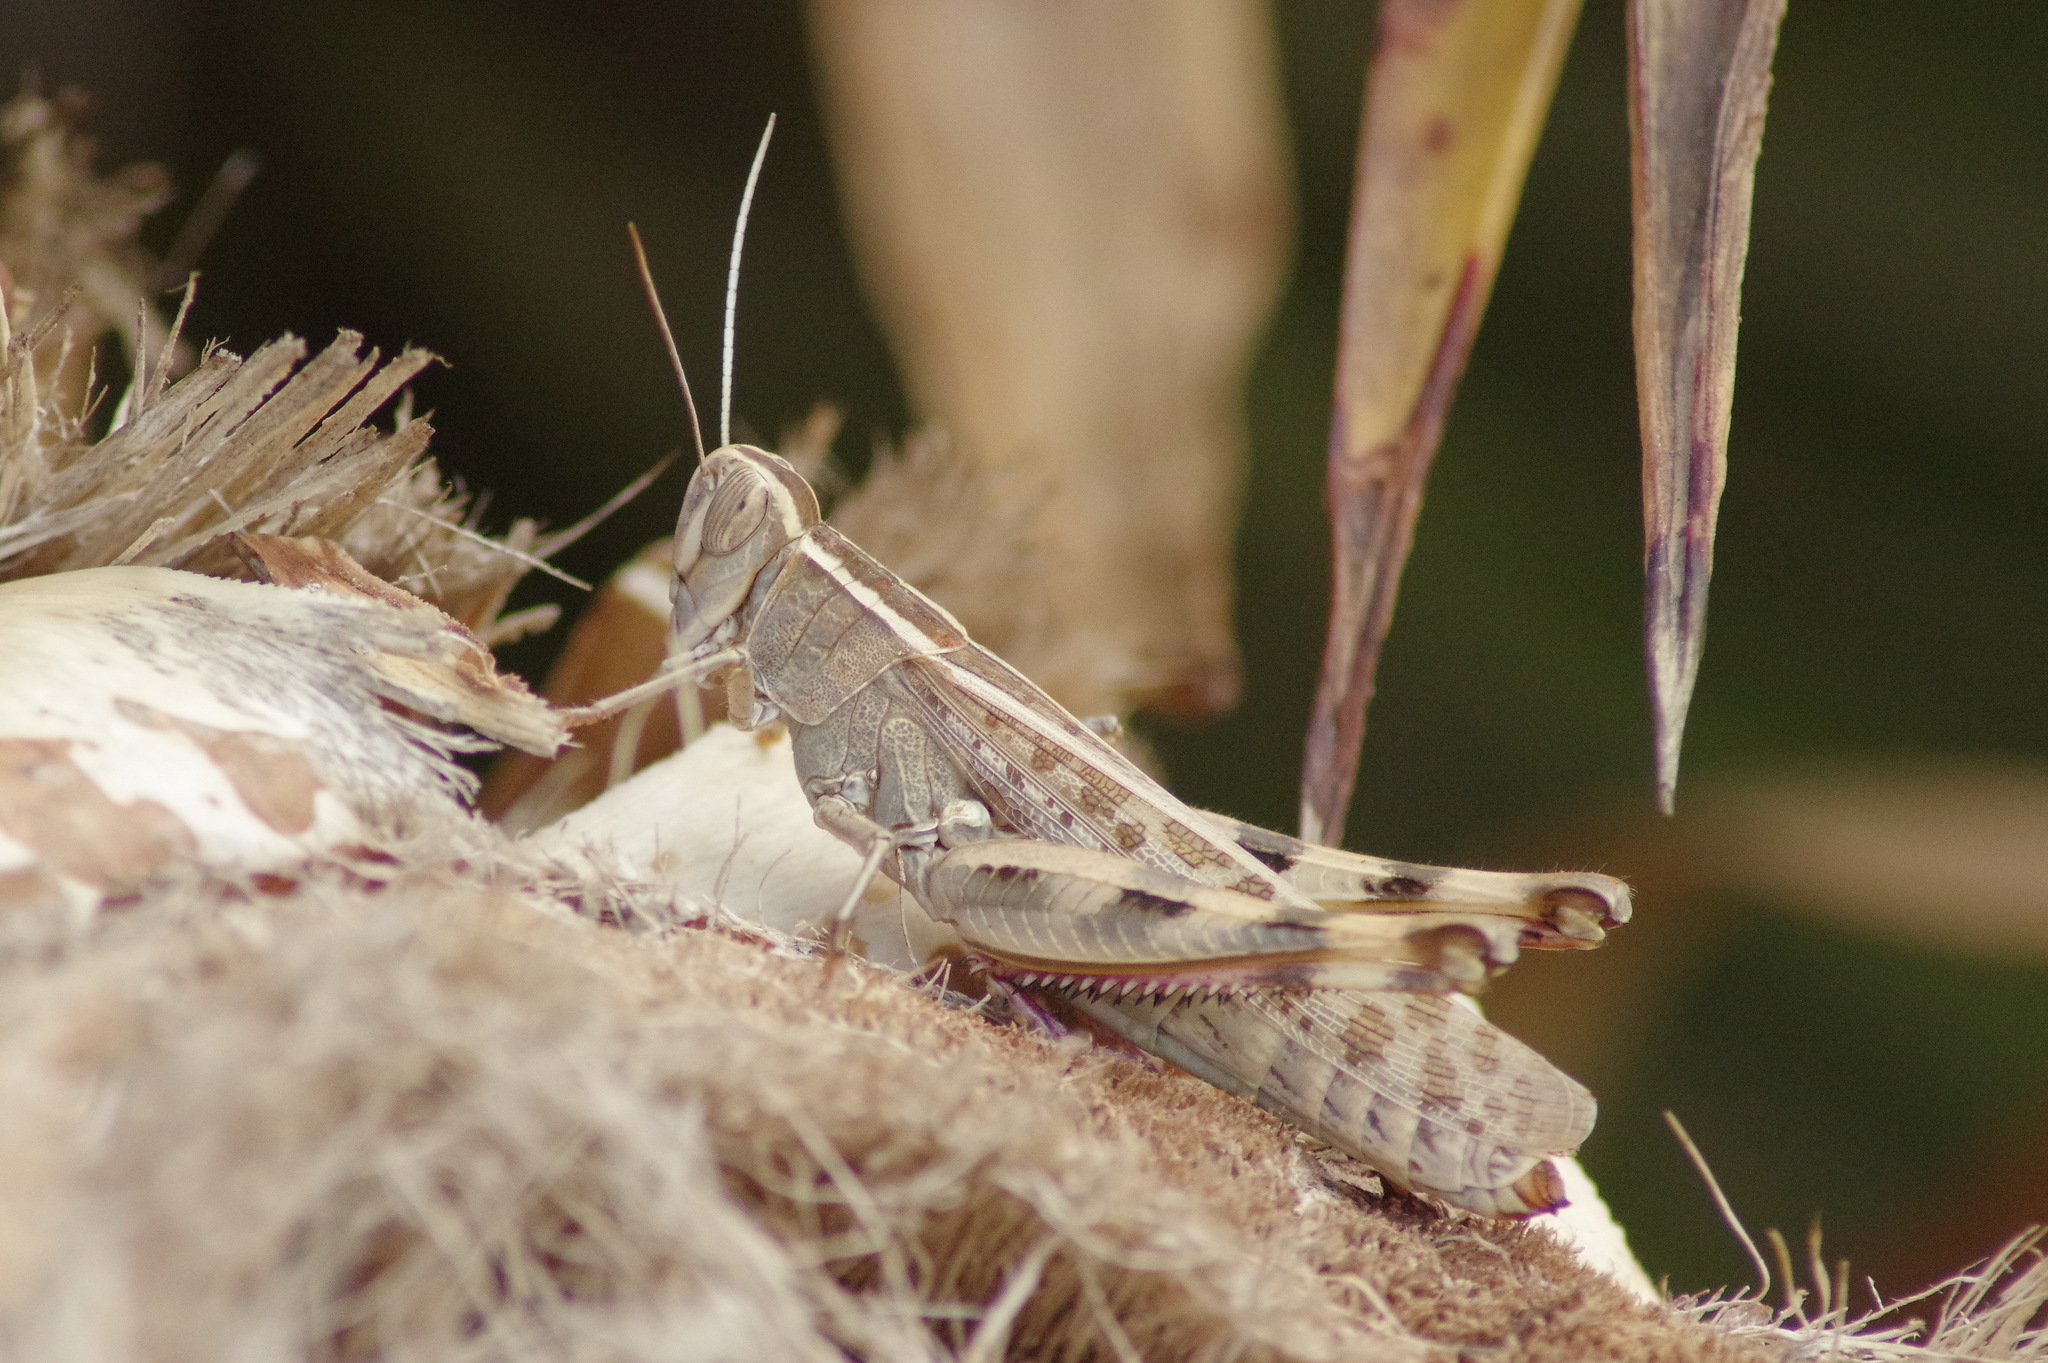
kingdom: Animalia
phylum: Arthropoda
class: Insecta
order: Orthoptera
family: Acrididae
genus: Heteracris
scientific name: Heteracris littoralis
